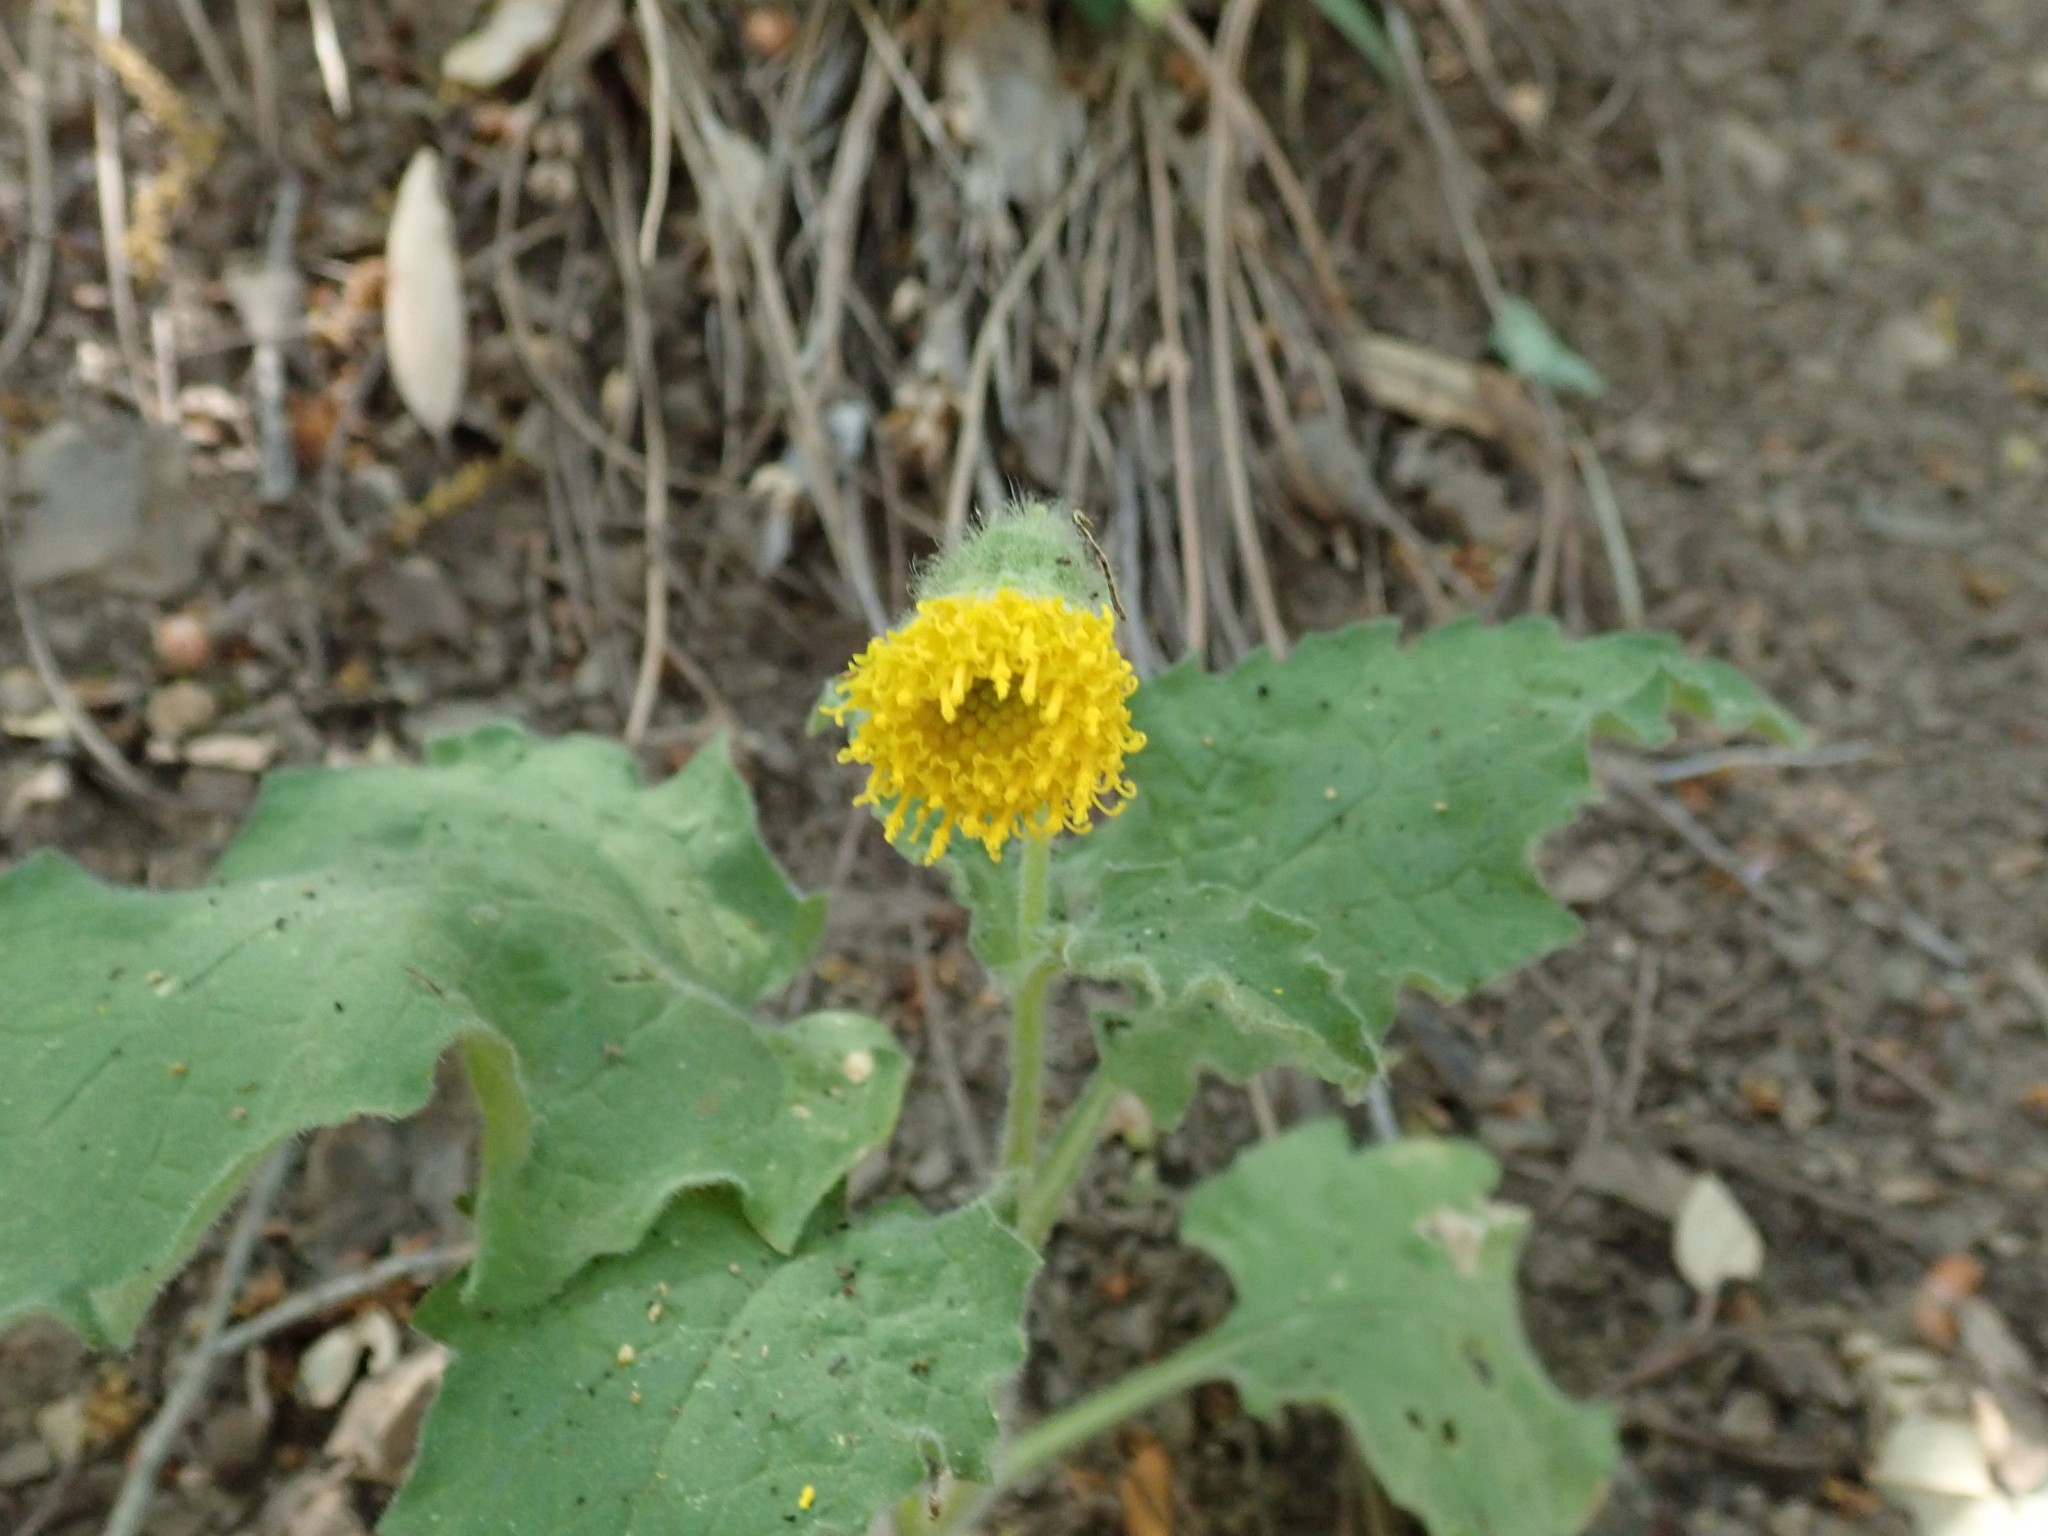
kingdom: Plantae
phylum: Tracheophyta
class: Magnoliopsida
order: Asterales
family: Asteraceae
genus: Arnica
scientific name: Arnica discoidea
